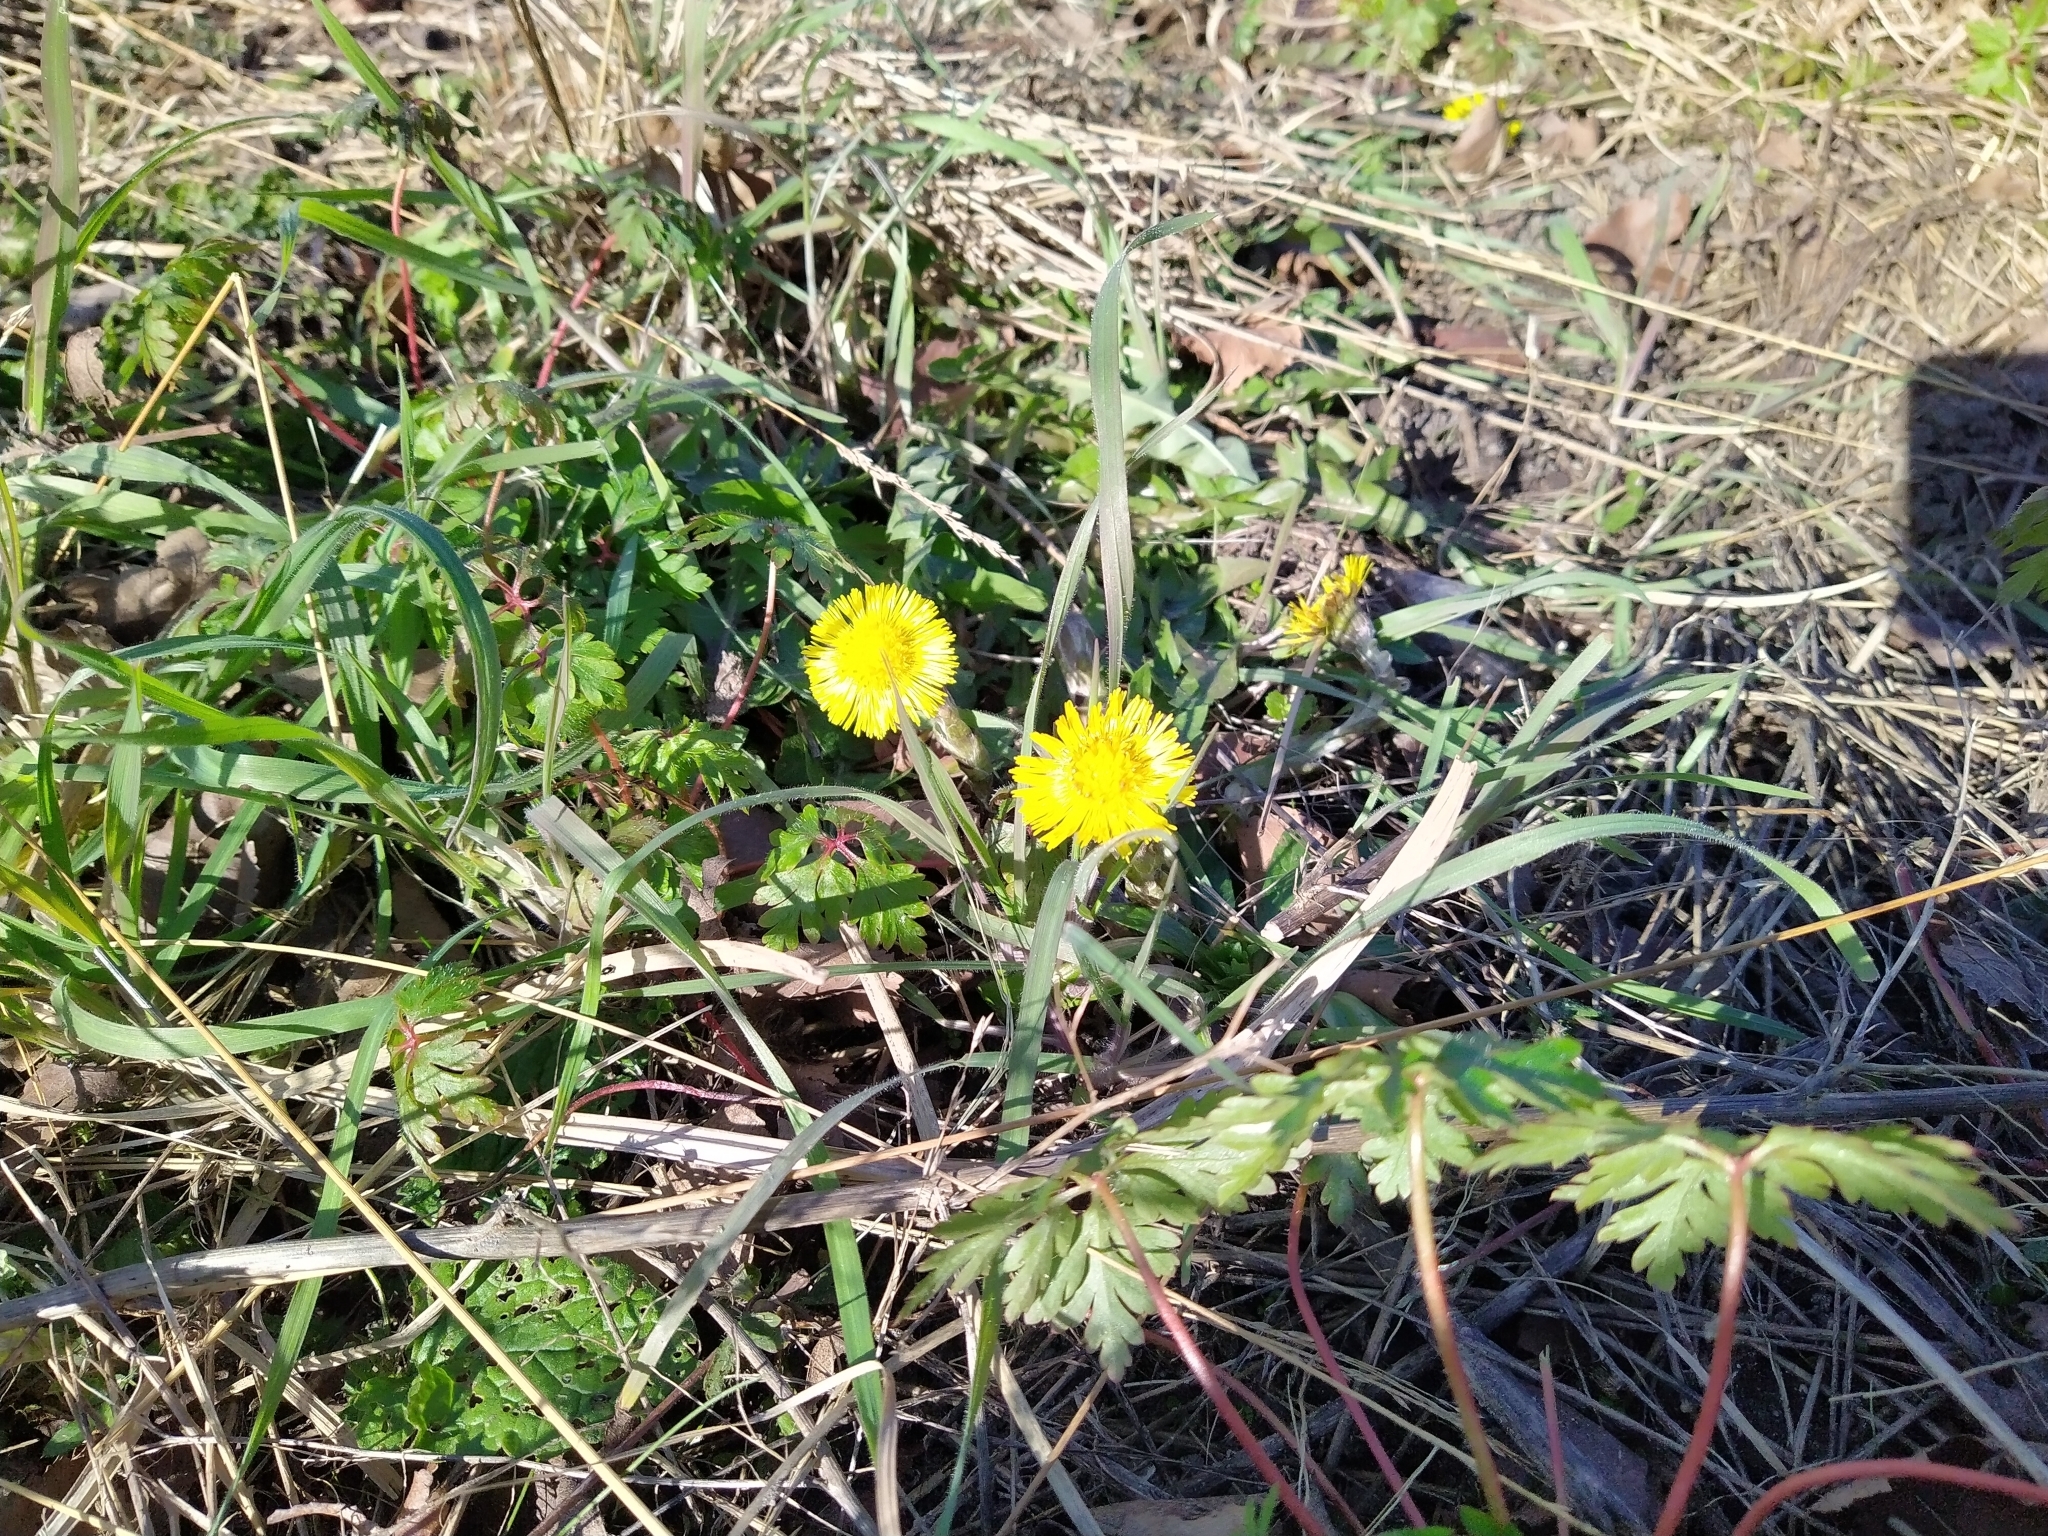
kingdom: Plantae
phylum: Tracheophyta
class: Magnoliopsida
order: Asterales
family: Asteraceae
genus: Tussilago
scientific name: Tussilago farfara
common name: Coltsfoot
